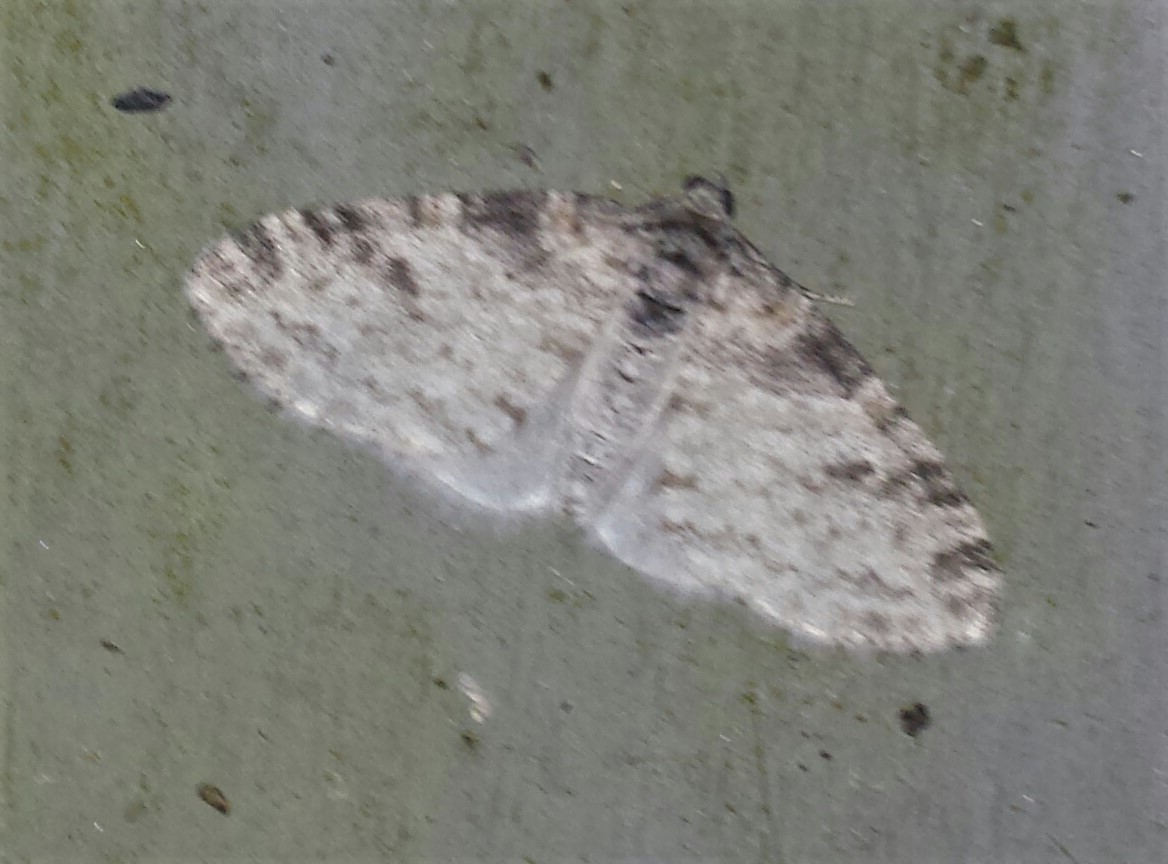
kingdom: Animalia
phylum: Arthropoda
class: Insecta
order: Lepidoptera
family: Geometridae
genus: Lobophora
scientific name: Lobophora nivigerata
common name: Powdered bigwing
